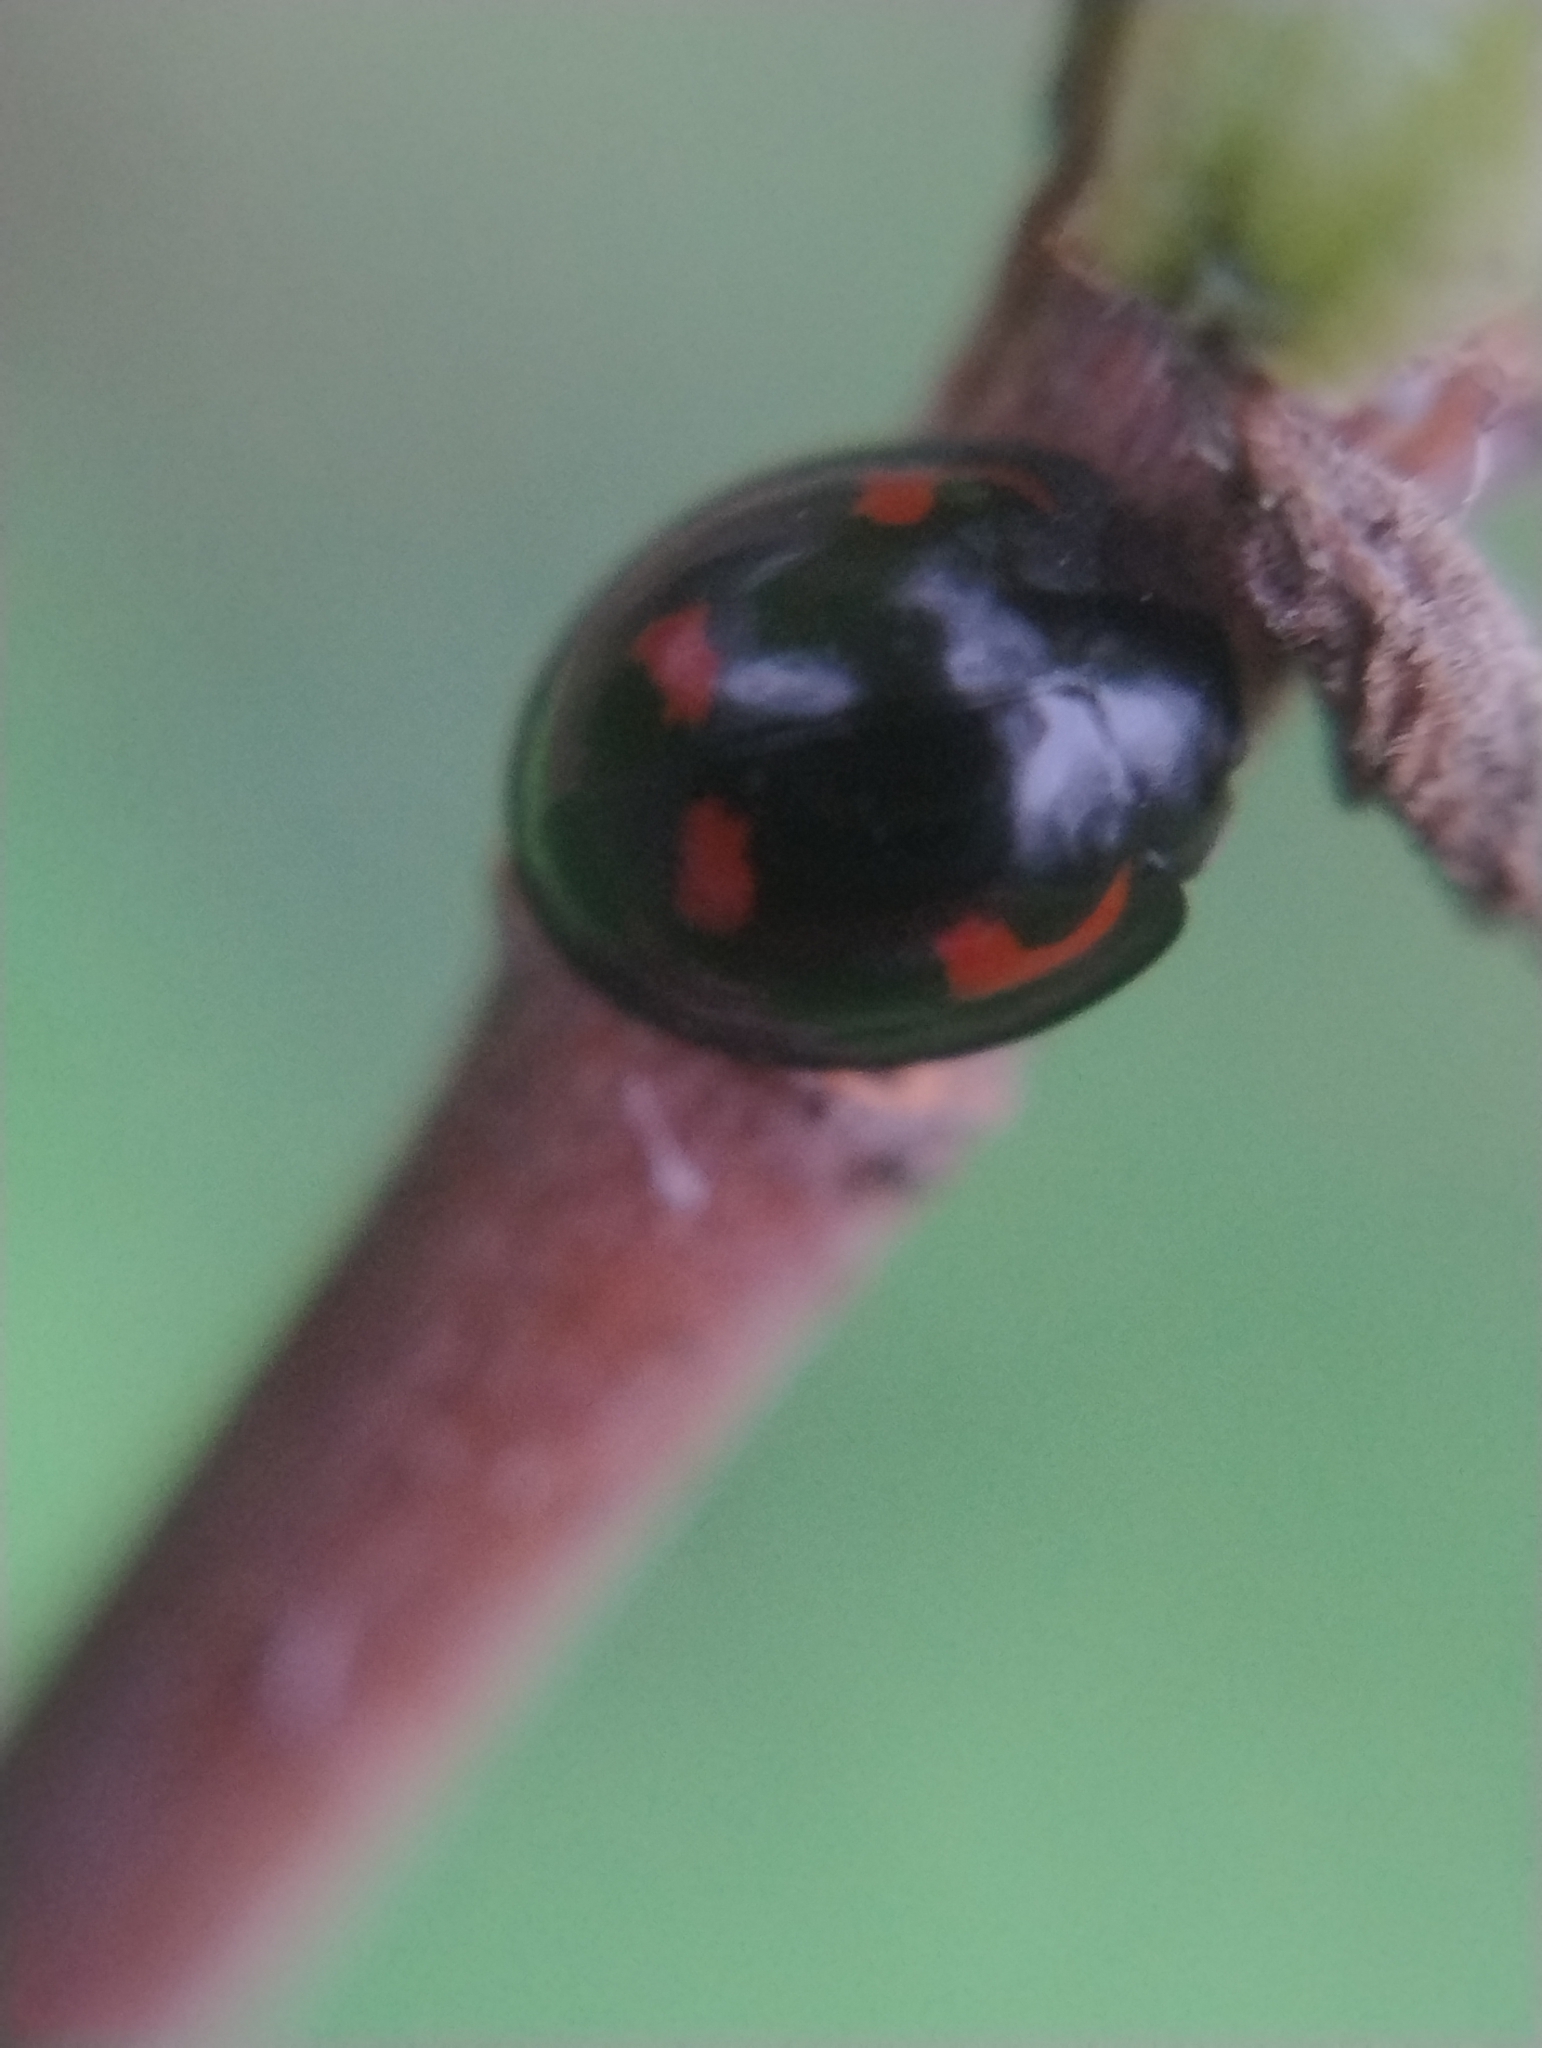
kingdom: Animalia
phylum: Arthropoda
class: Insecta
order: Coleoptera
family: Coccinellidae
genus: Brumus
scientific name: Brumus quadripustulatus
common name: Ladybird beetle
